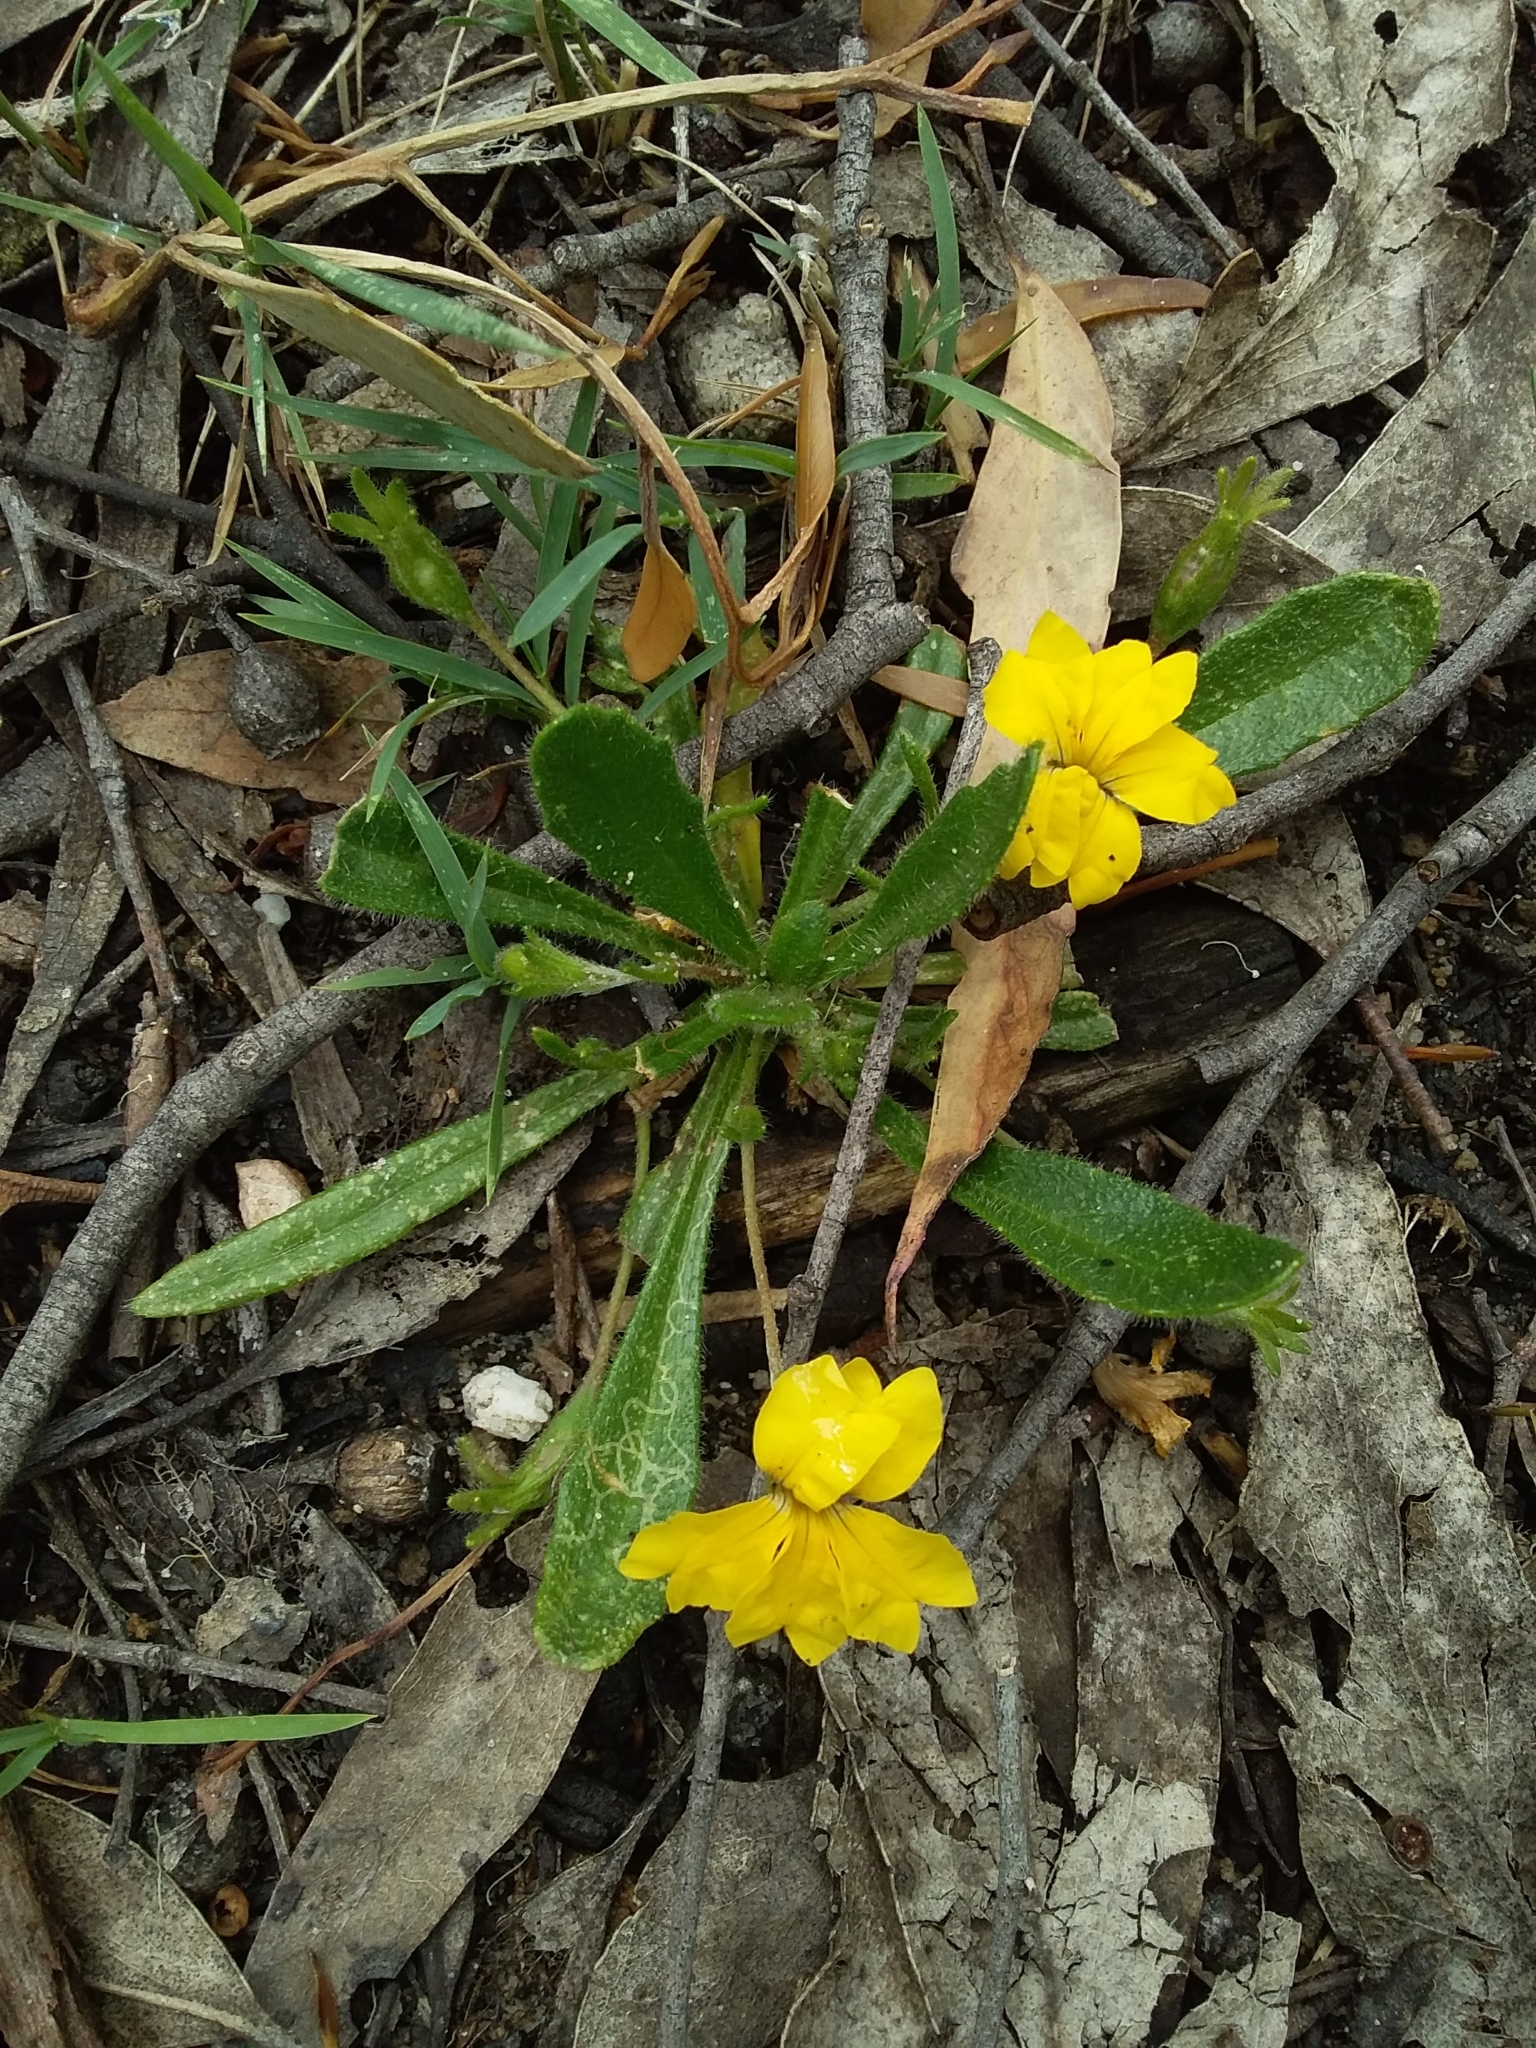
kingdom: Plantae
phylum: Tracheophyta
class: Magnoliopsida
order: Asterales
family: Goodeniaceae
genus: Goodenia
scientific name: Goodenia geniculata
